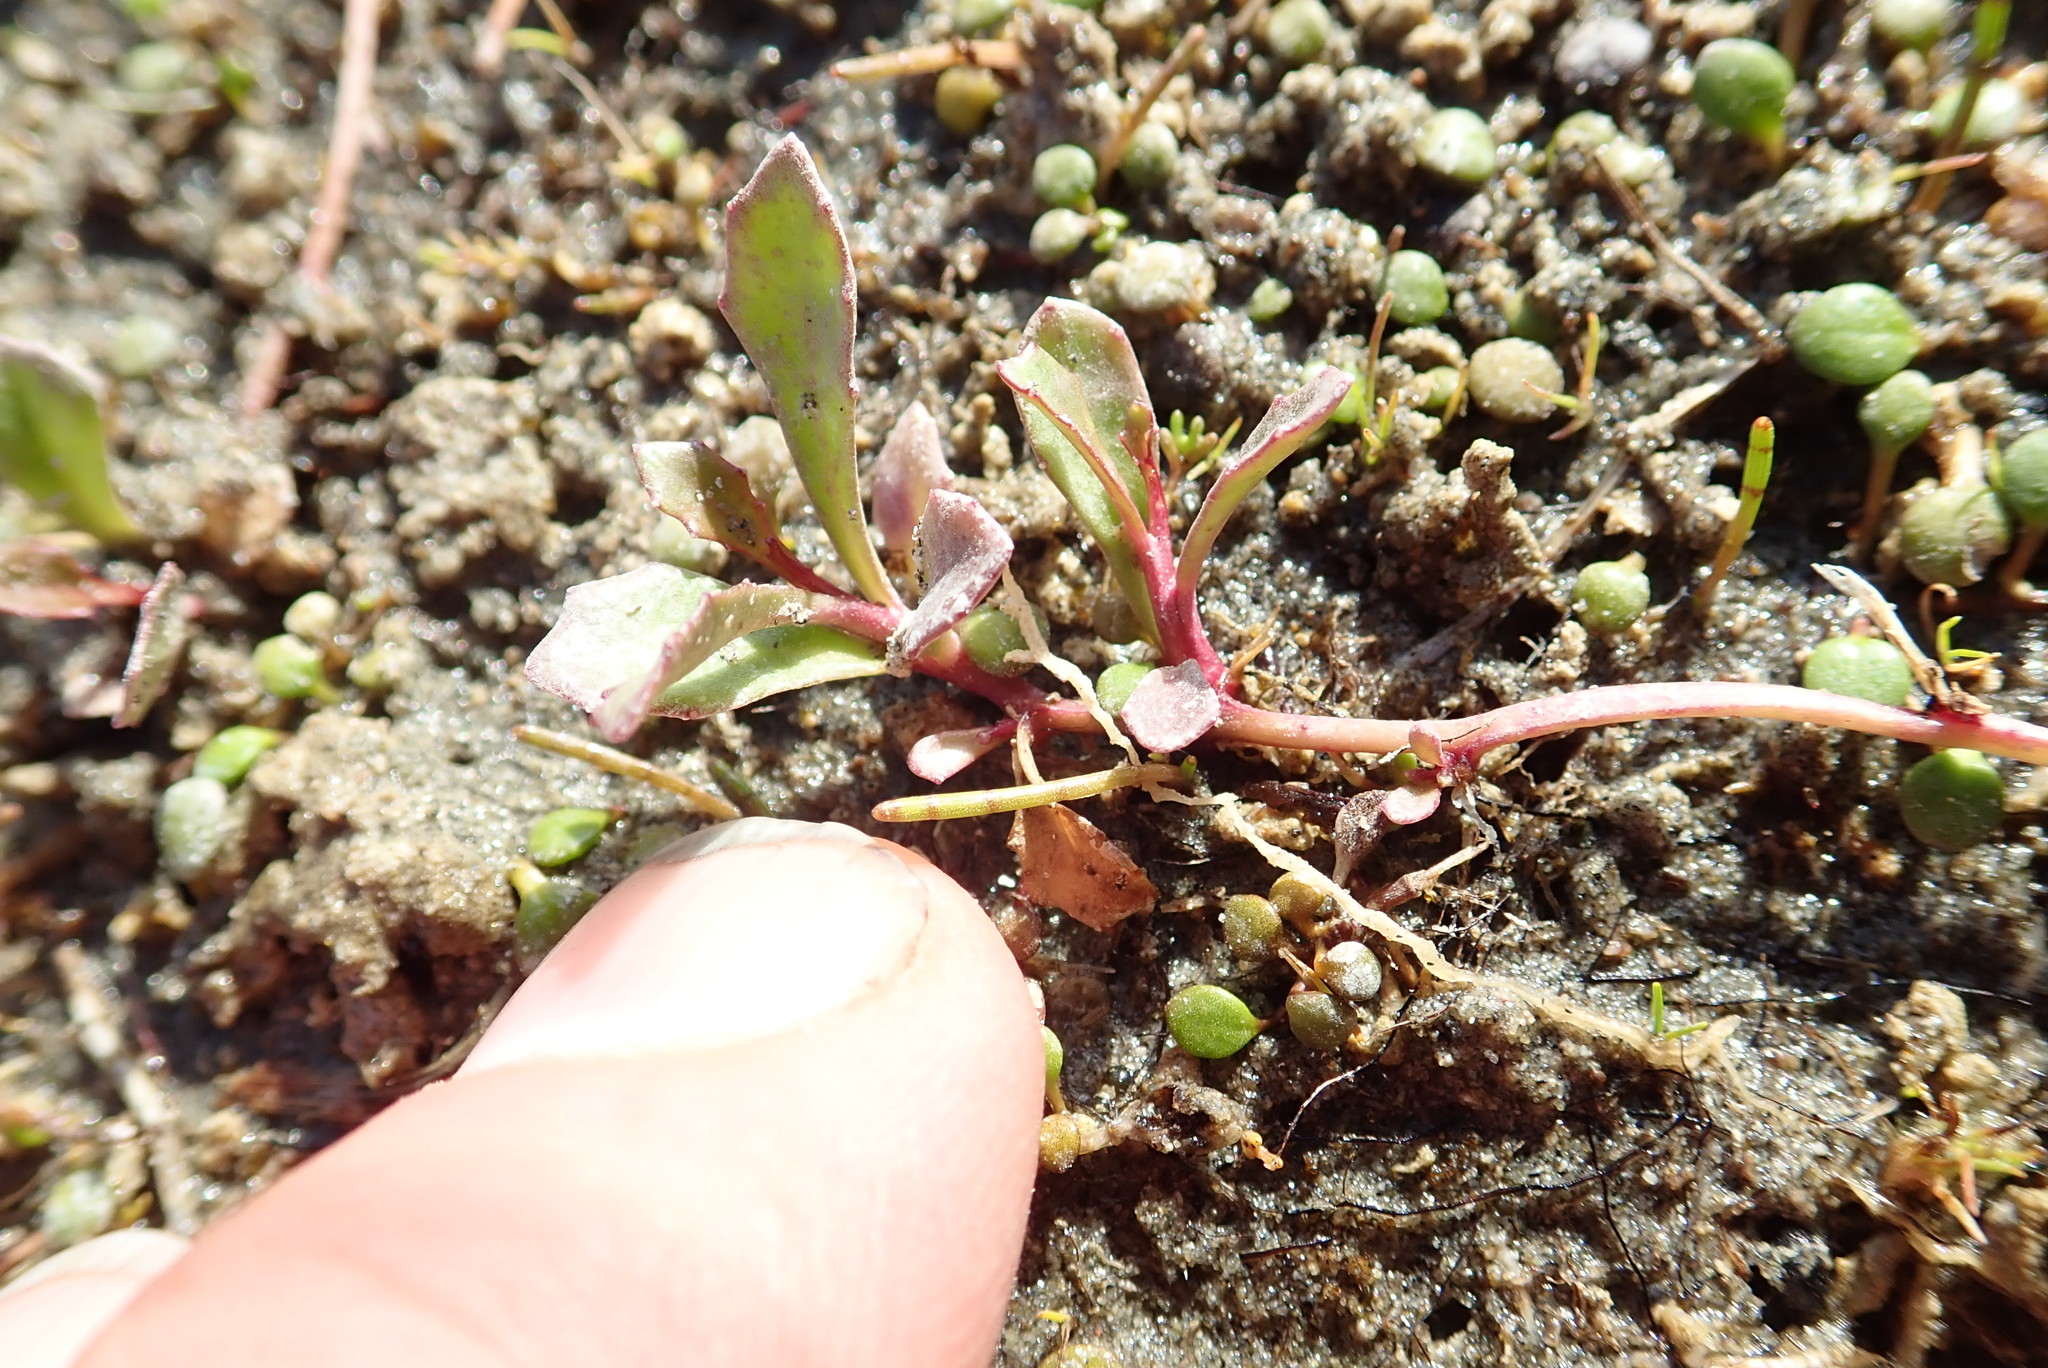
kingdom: Plantae
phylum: Tracheophyta
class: Magnoliopsida
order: Asterales
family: Campanulaceae
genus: Lobelia
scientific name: Lobelia anceps
